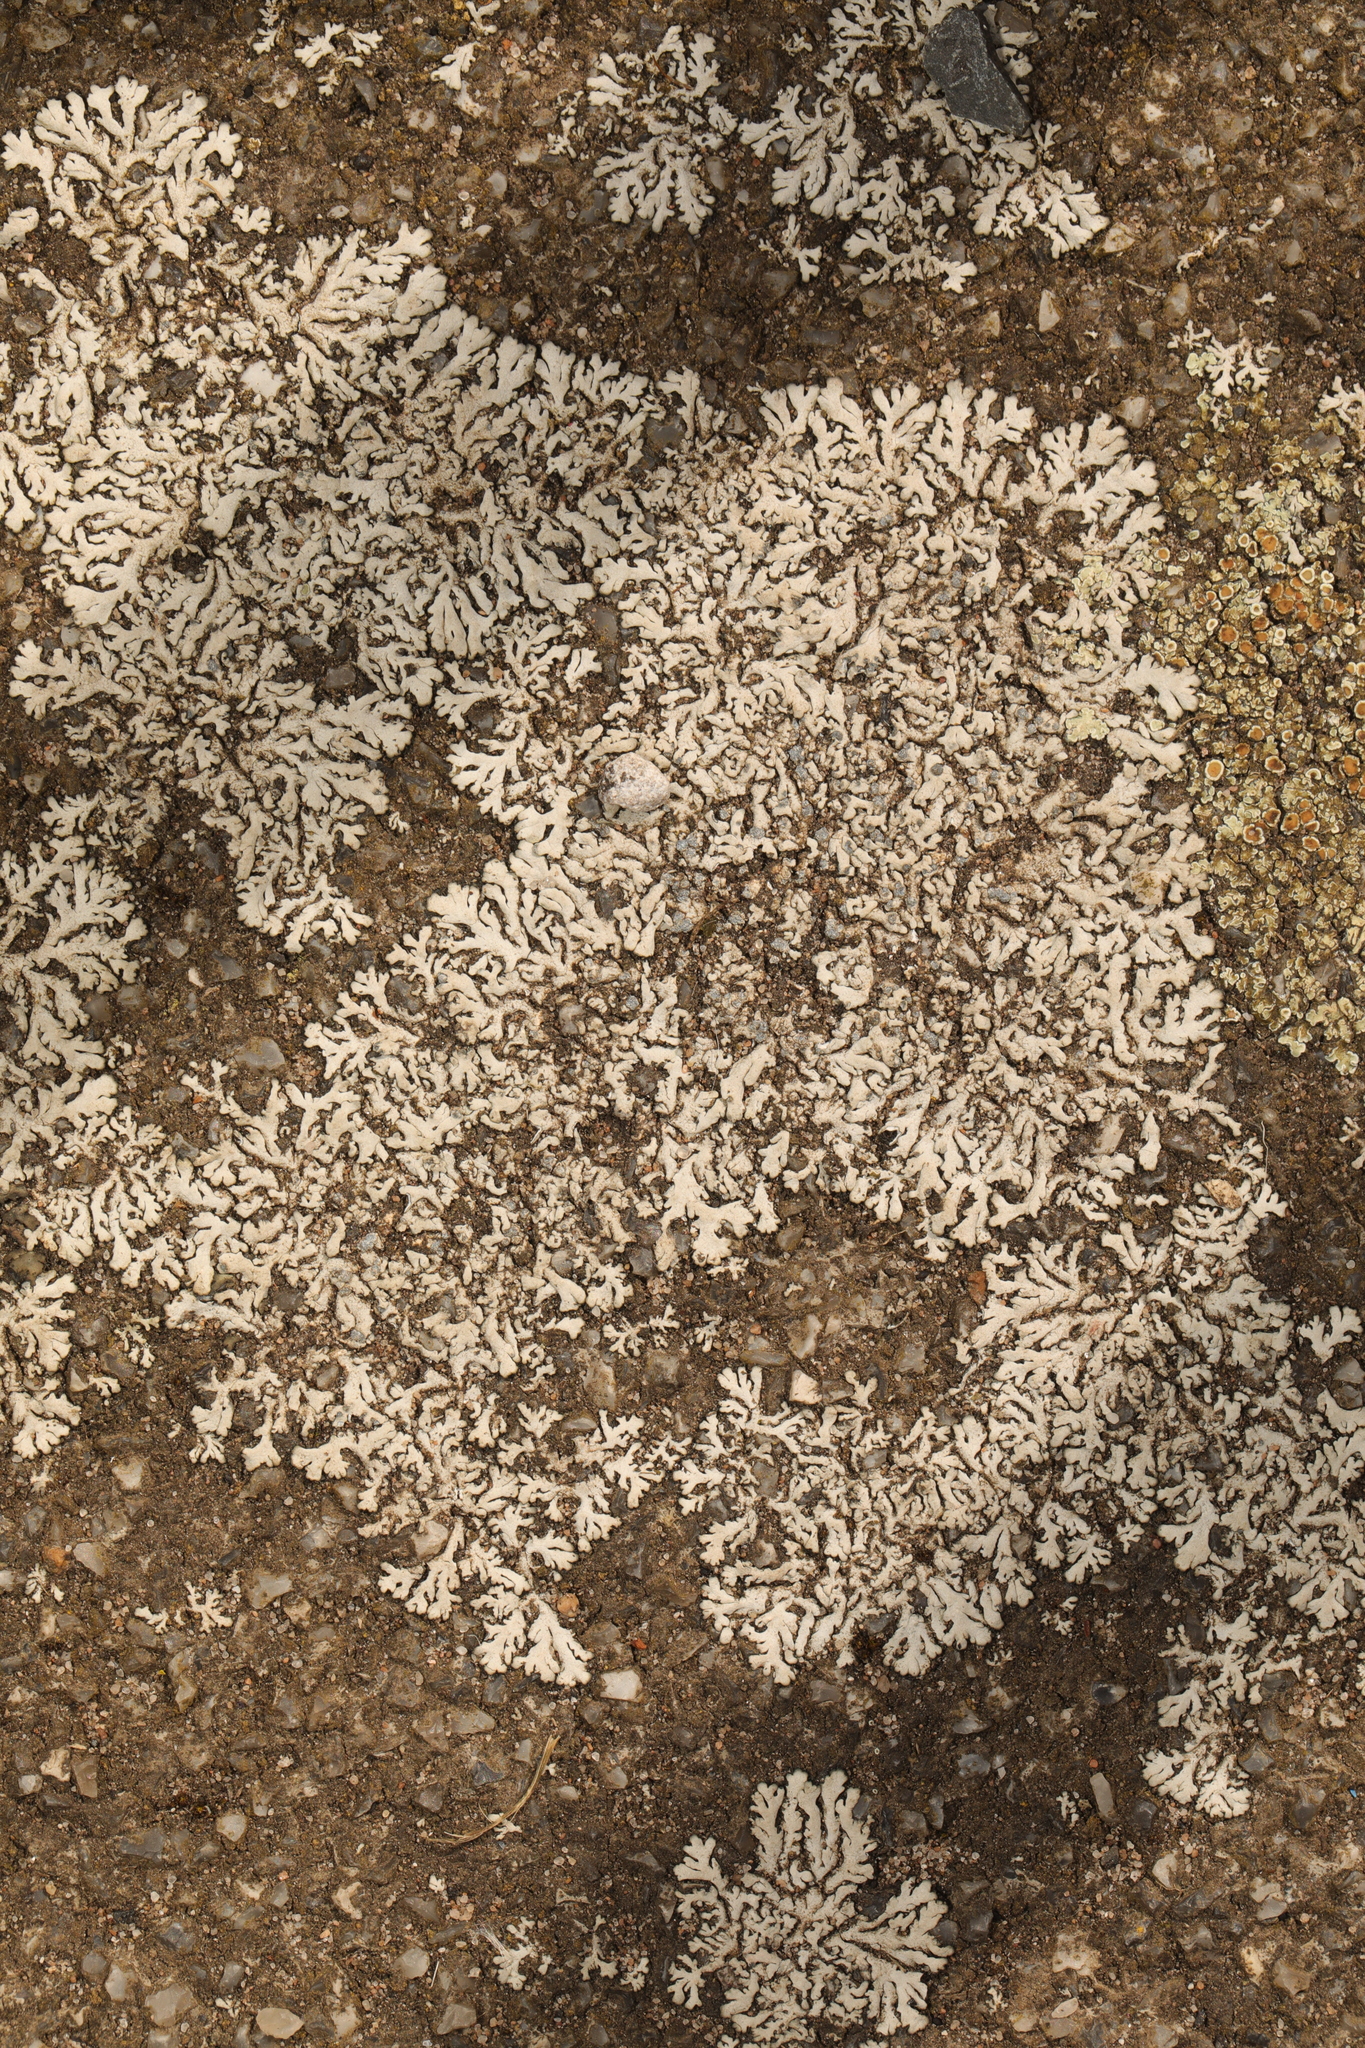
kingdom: Fungi
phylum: Ascomycota
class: Lecanoromycetes
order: Caliciales
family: Physciaceae
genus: Physcia
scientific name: Physcia caesia
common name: Blue-gray rosette lichen
